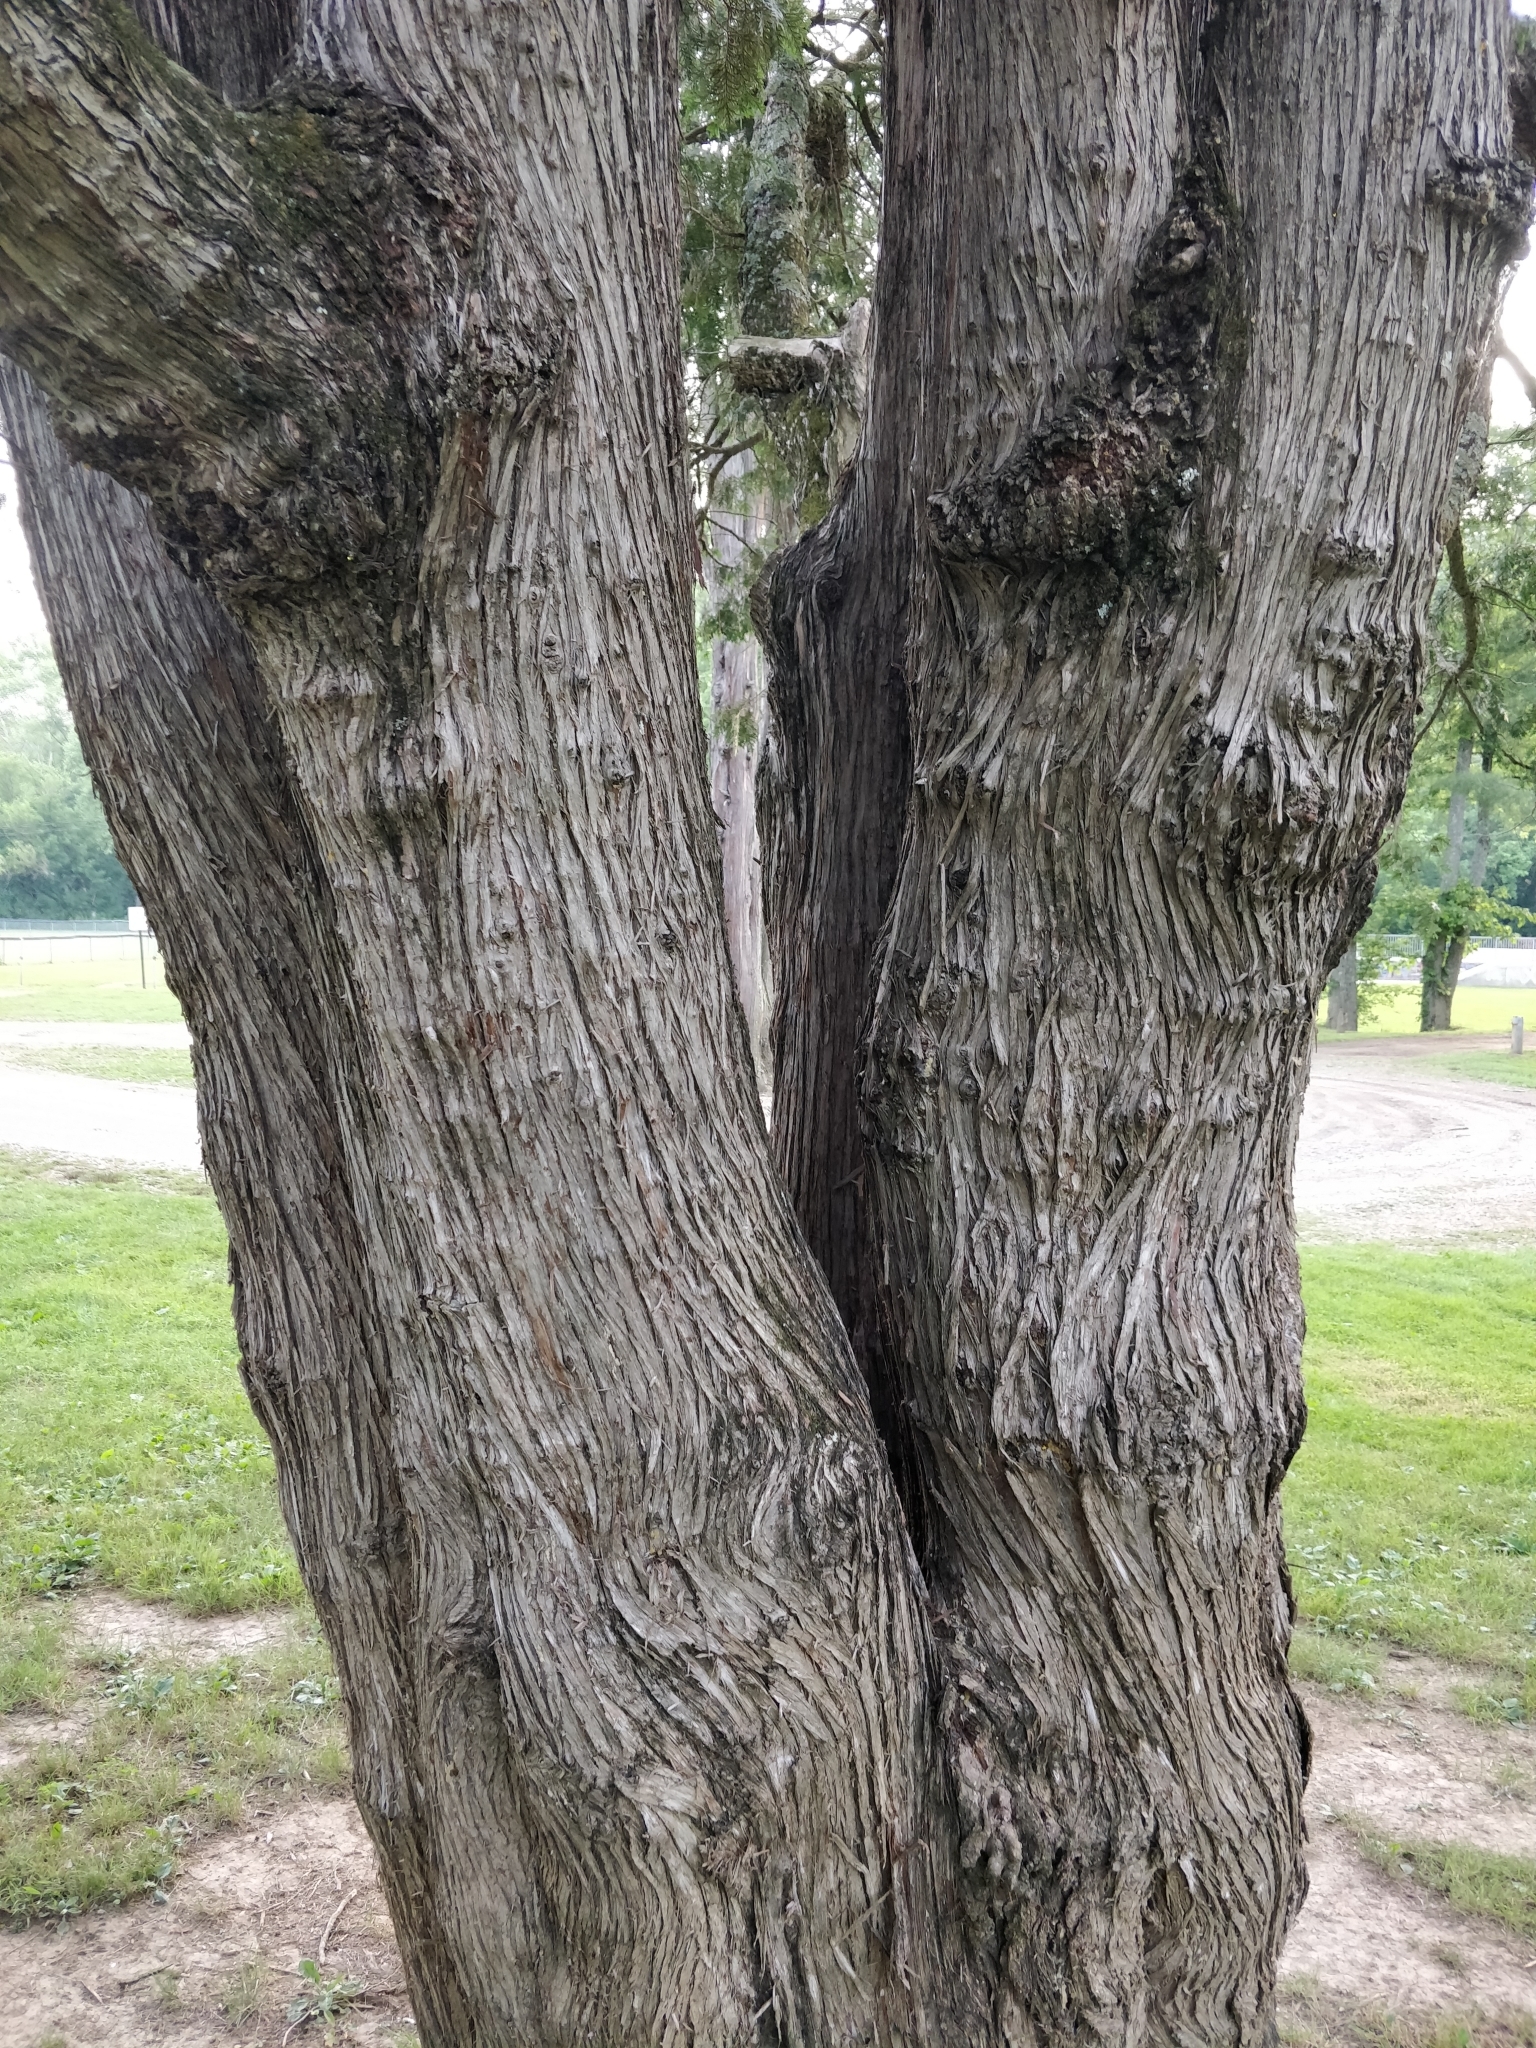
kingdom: Plantae
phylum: Tracheophyta
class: Pinopsida
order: Pinales
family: Cupressaceae
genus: Thuja
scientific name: Thuja occidentalis
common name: Northern white-cedar
